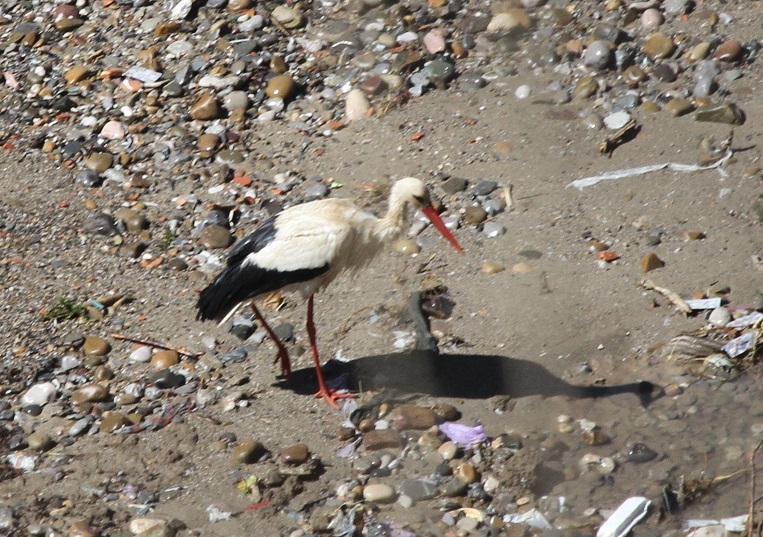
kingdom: Animalia
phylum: Chordata
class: Aves
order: Ciconiiformes
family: Ciconiidae
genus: Ciconia
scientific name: Ciconia ciconia
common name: White stork
